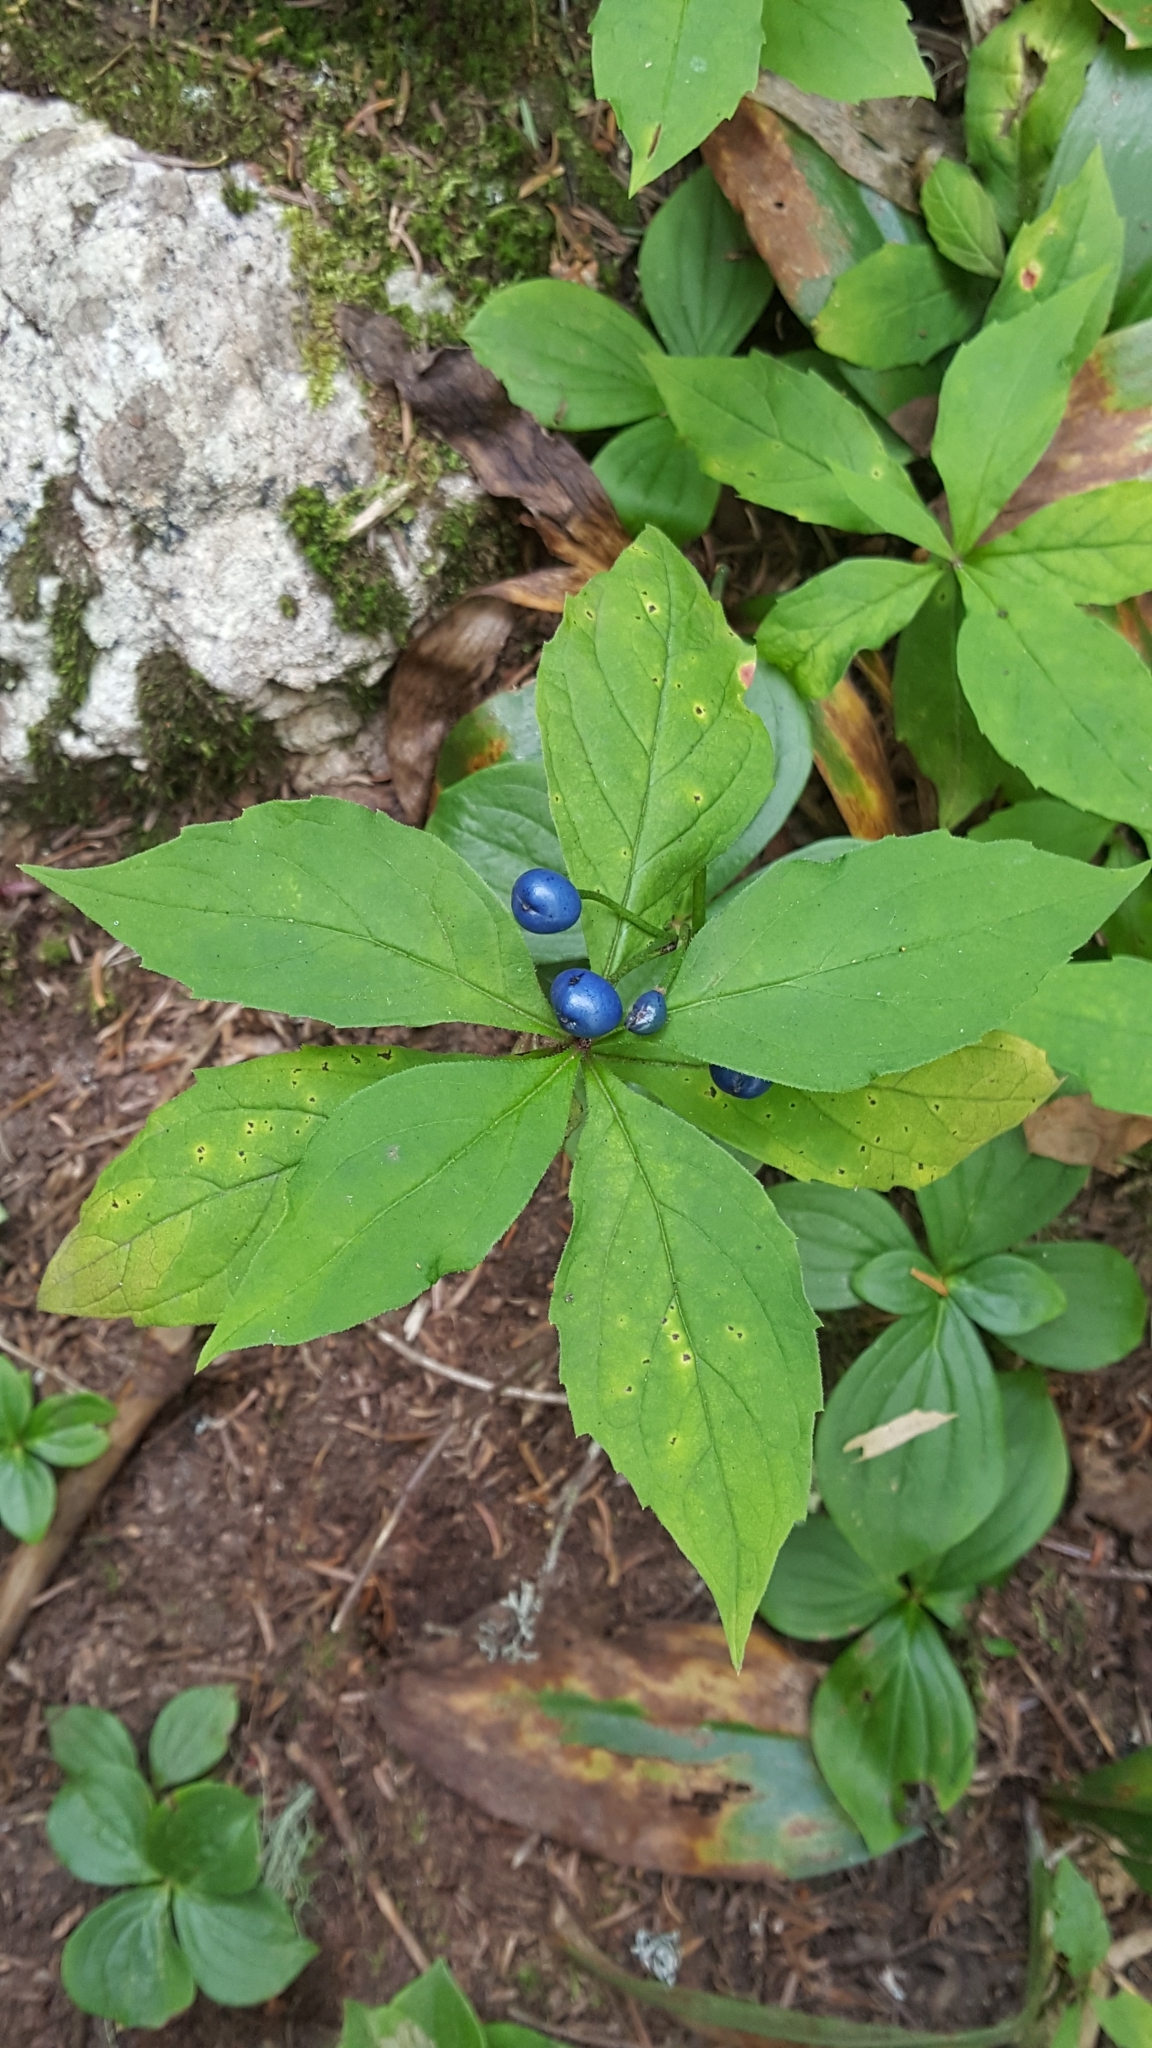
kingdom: Plantae
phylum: Tracheophyta
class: Liliopsida
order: Liliales
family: Liliaceae
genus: Clintonia
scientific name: Clintonia borealis
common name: Yellow clintonia
